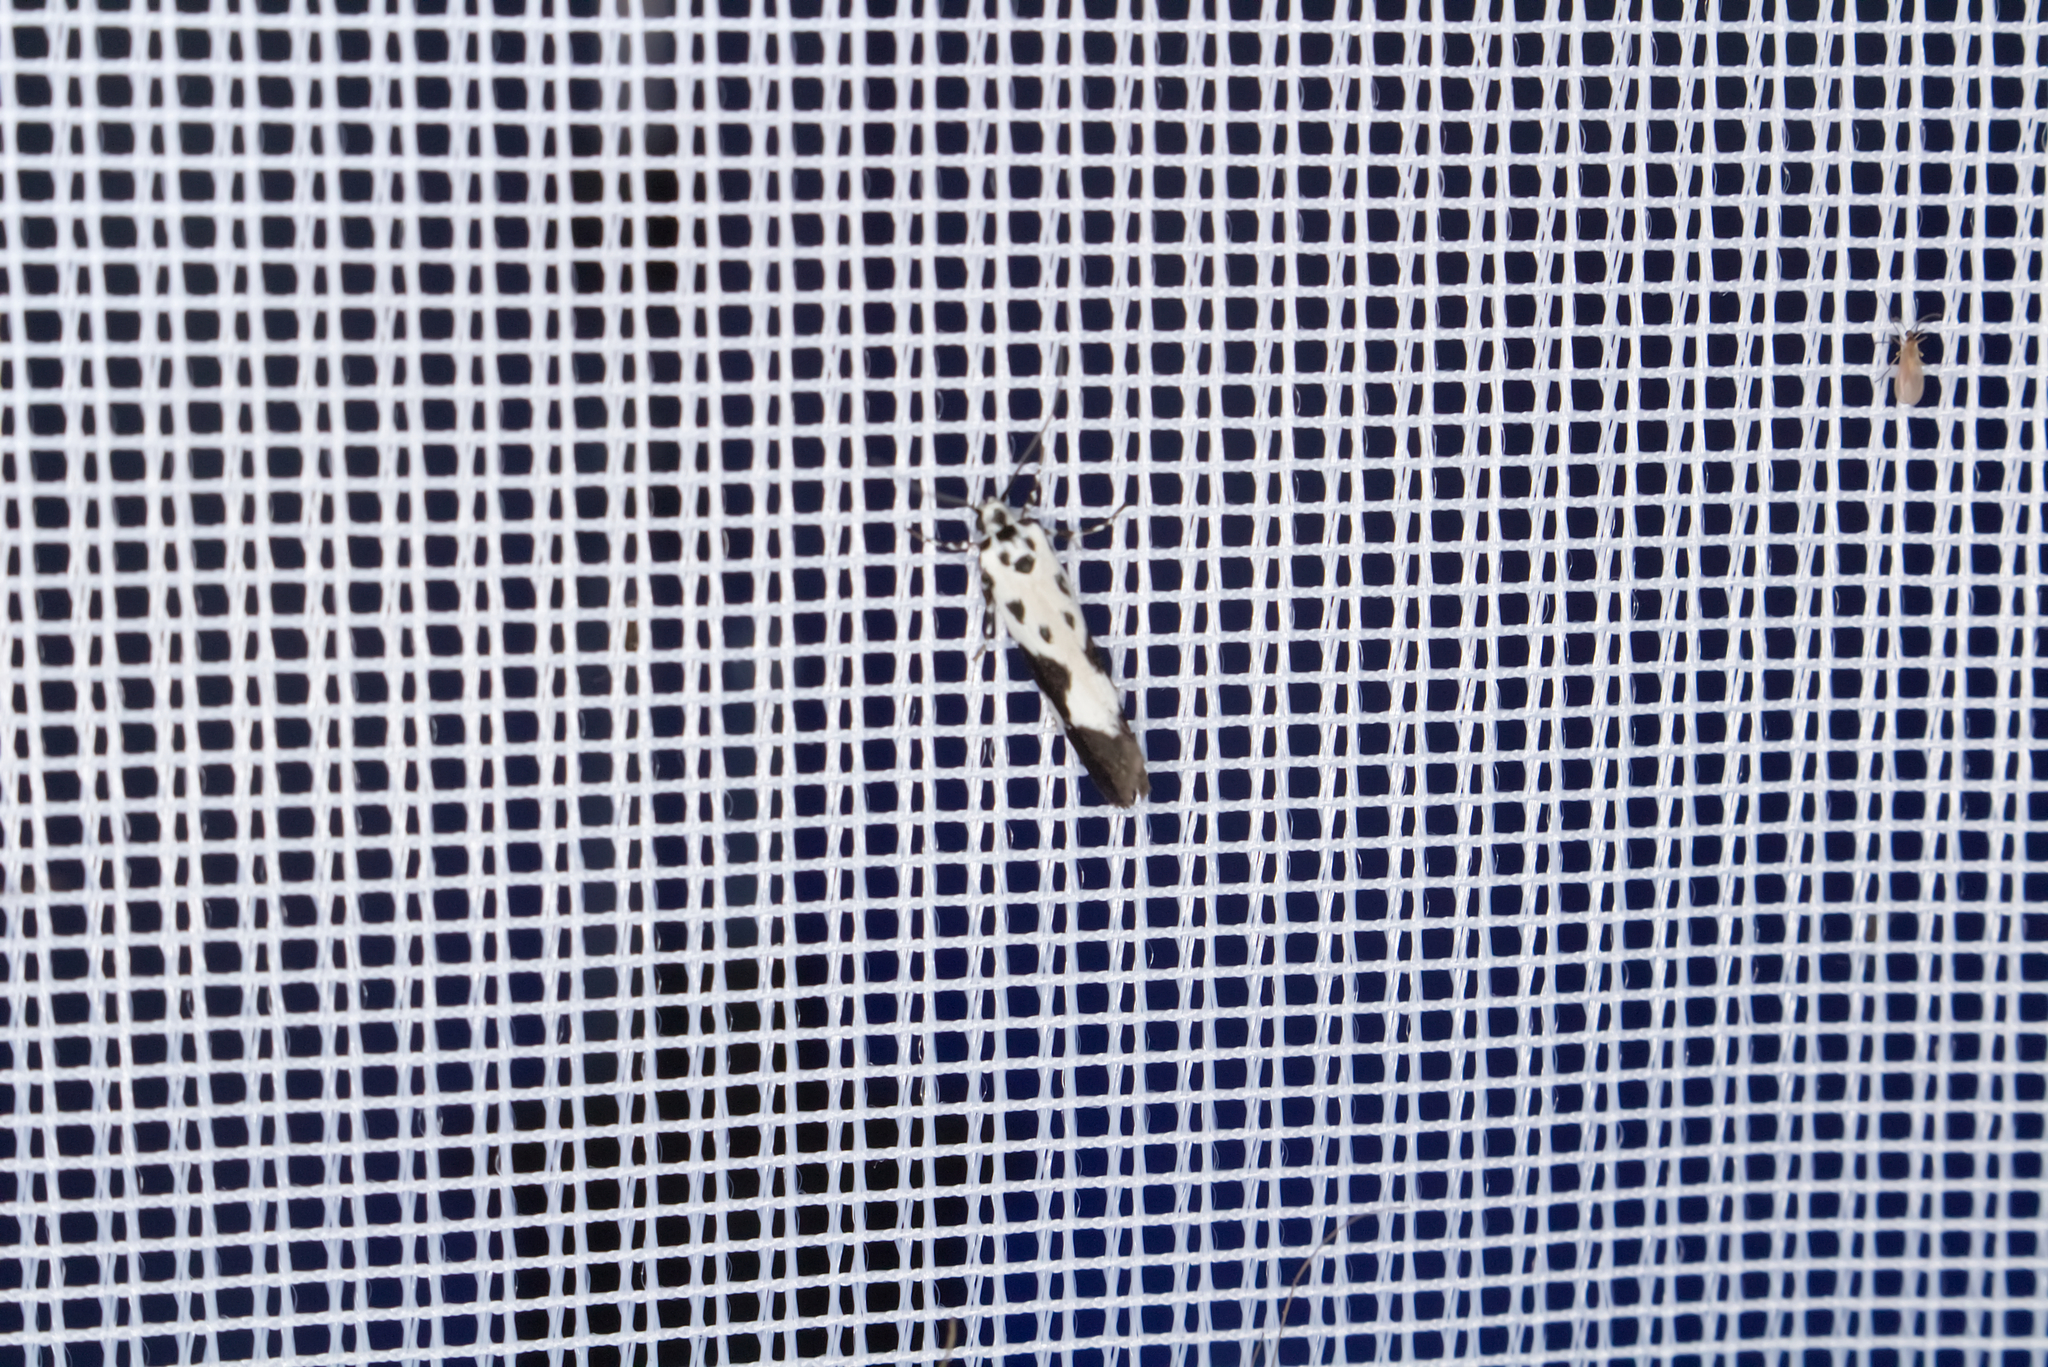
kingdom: Animalia
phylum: Arthropoda
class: Insecta
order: Lepidoptera
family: Ethmiidae
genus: Ethmia
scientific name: Ethmia quadrillella
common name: Comfrey ermel
